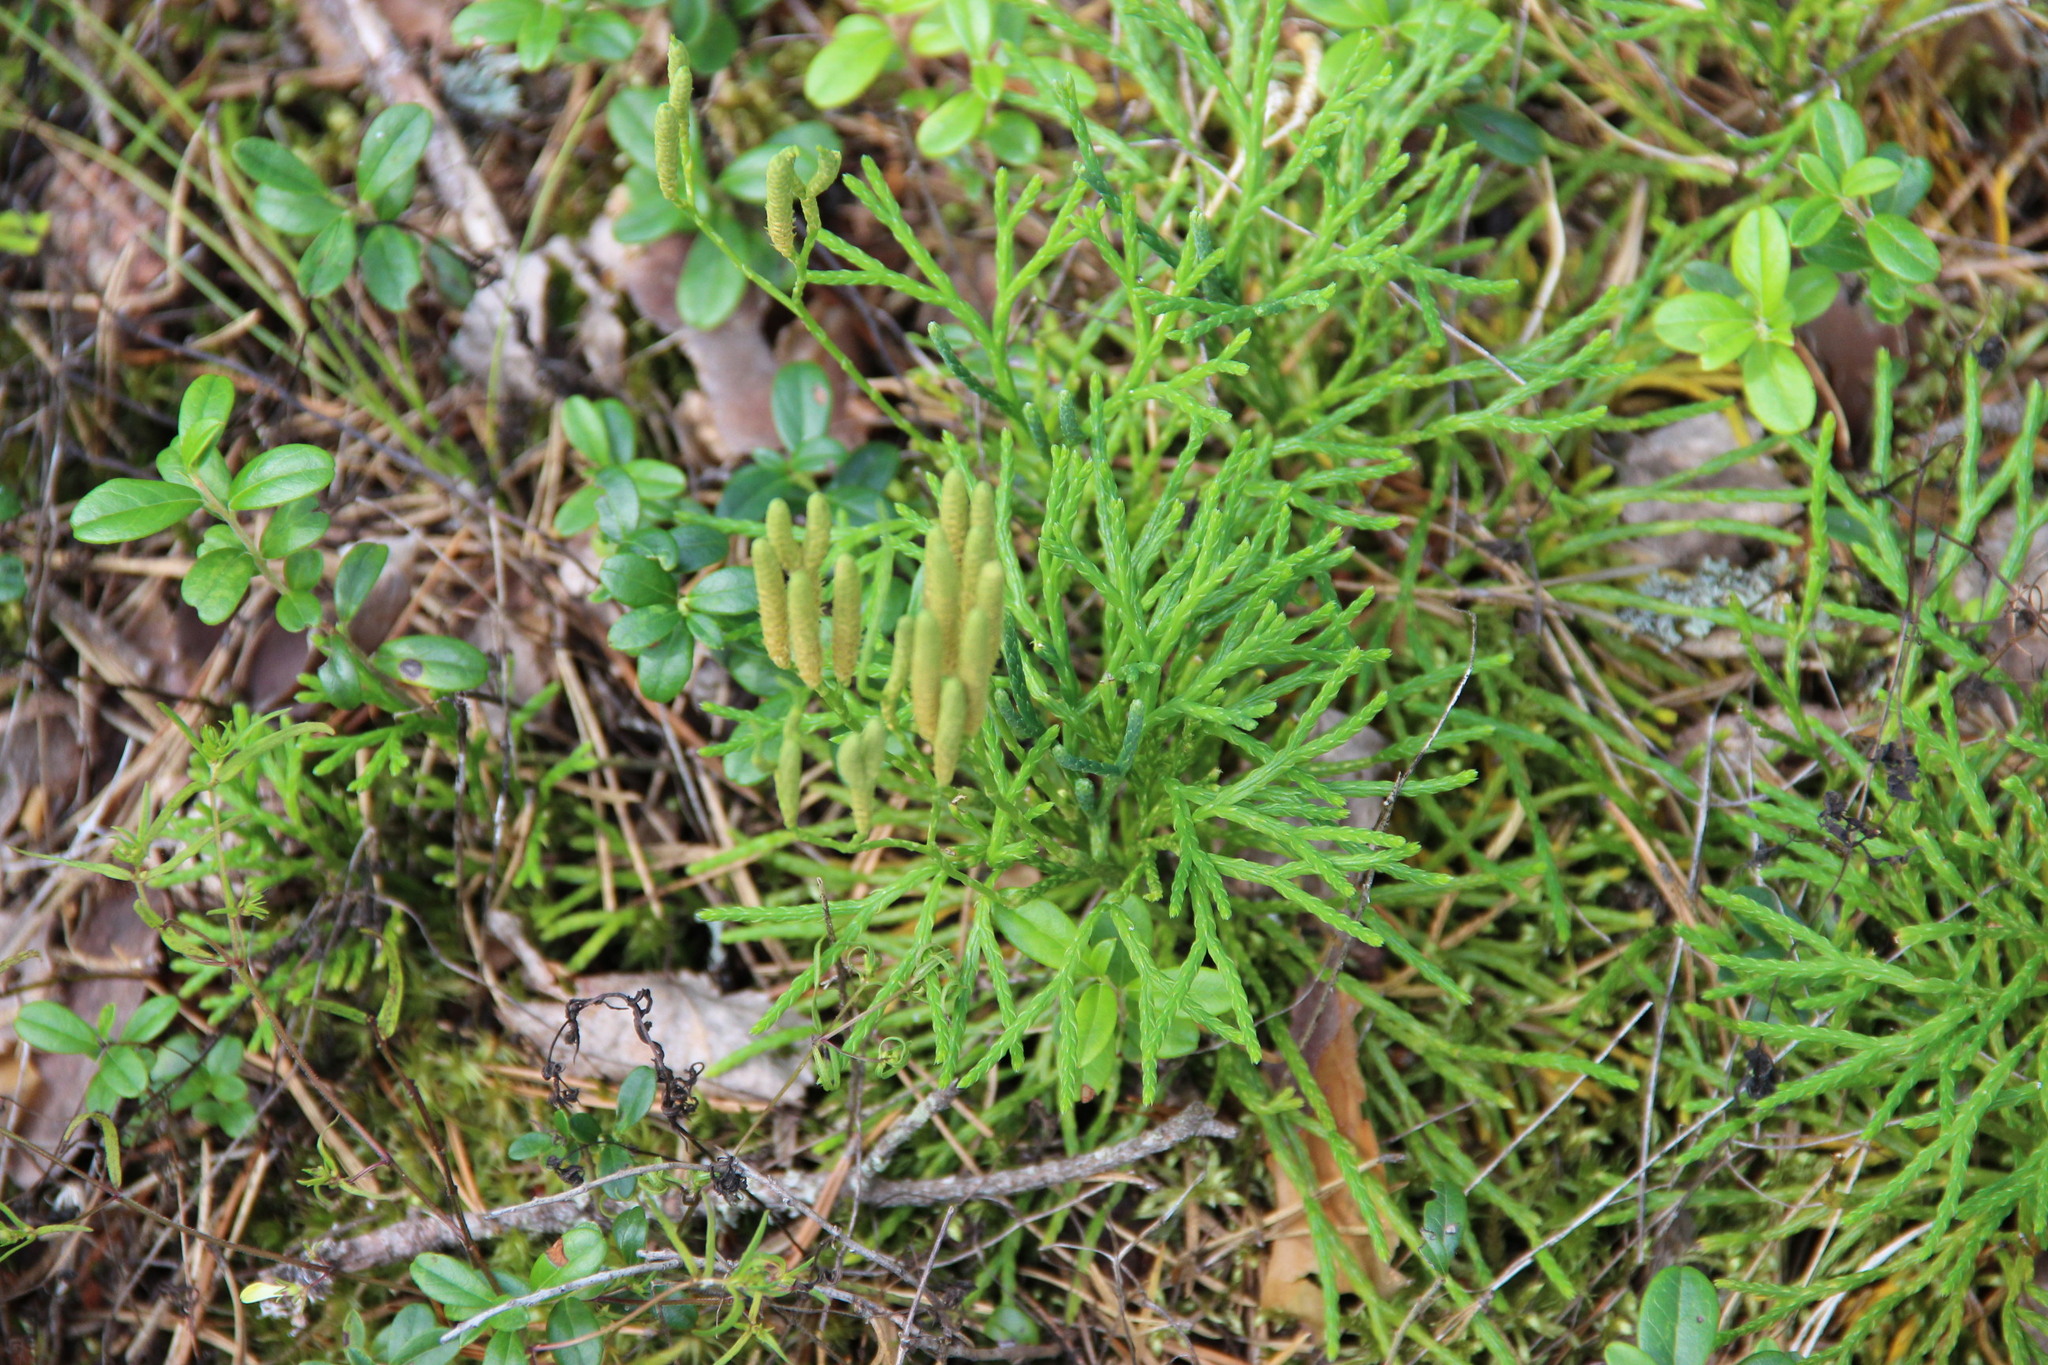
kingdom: Plantae
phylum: Tracheophyta
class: Lycopodiopsida
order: Lycopodiales
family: Lycopodiaceae
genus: Diphasiastrum
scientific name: Diphasiastrum complanatum
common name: Northern running-pine
